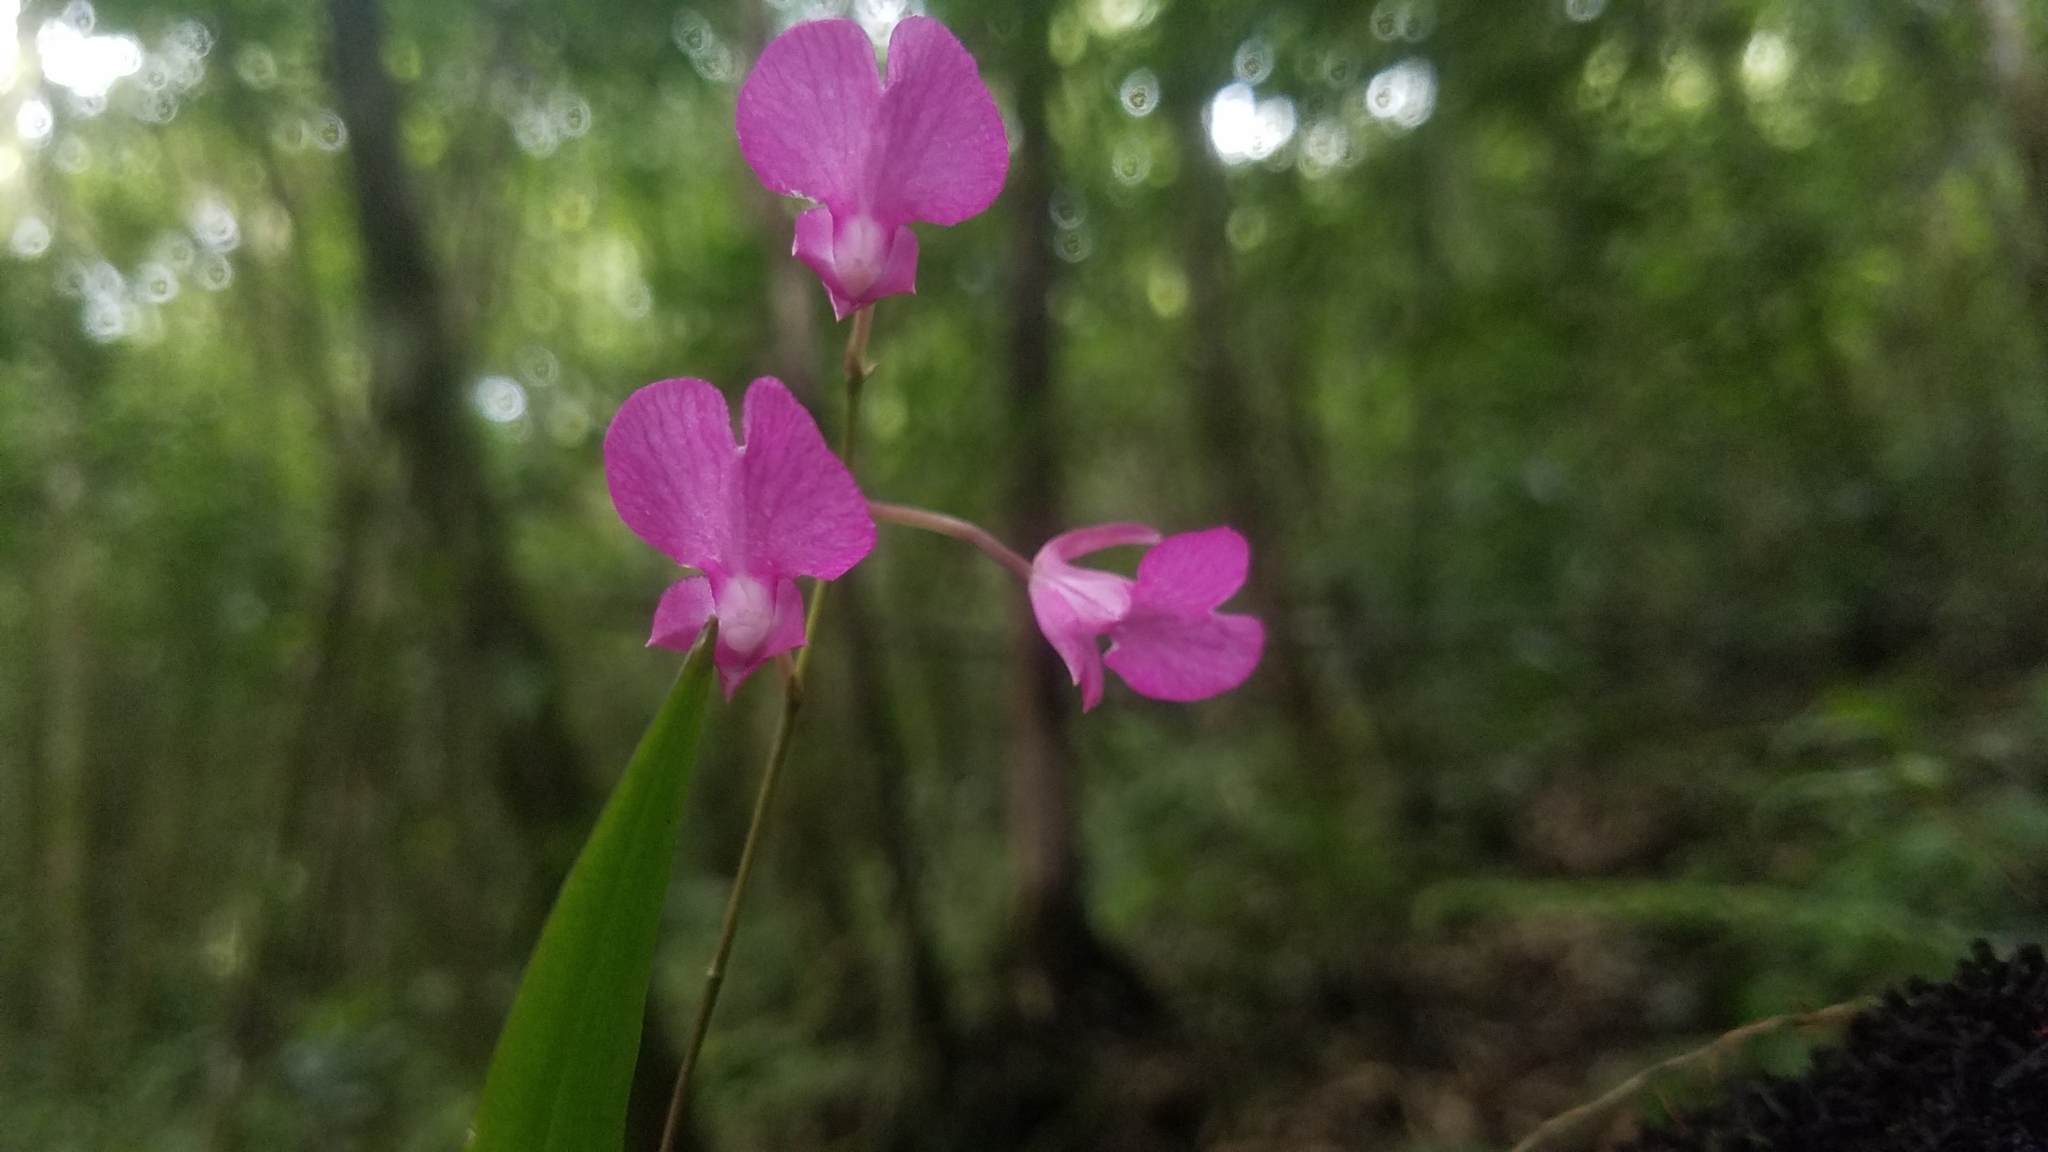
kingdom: Plantae
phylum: Tracheophyta
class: Liliopsida
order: Asparagales
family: Orchidaceae
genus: Comparettia
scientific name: Comparettia falcata
